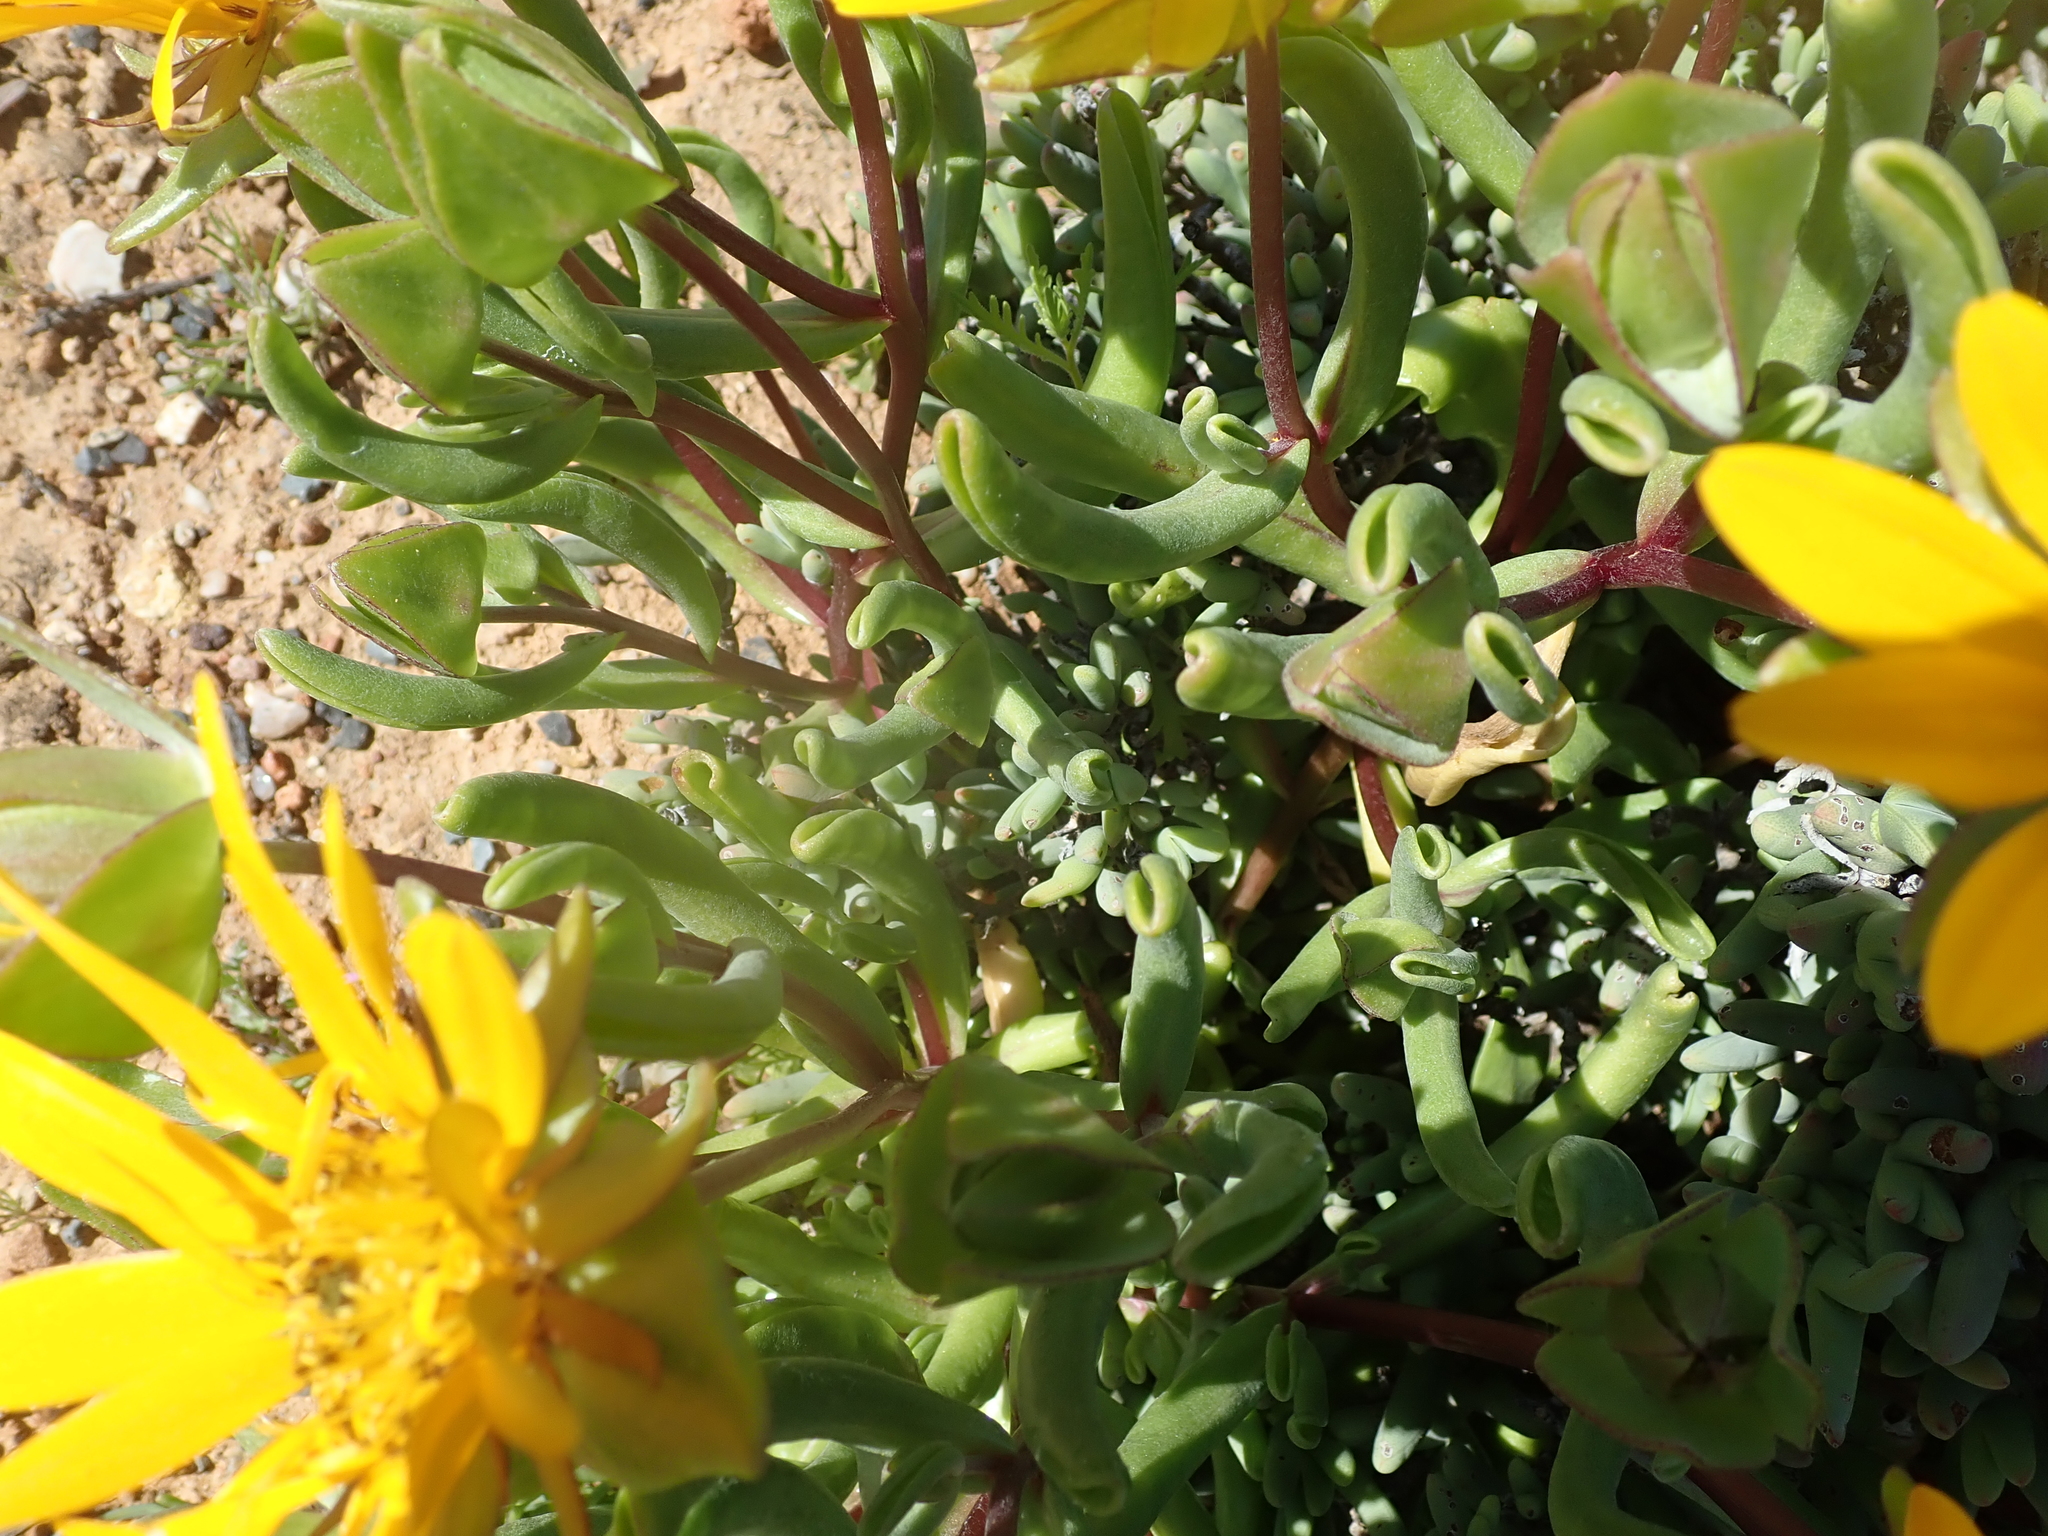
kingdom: Plantae
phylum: Tracheophyta
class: Magnoliopsida
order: Asterales
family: Asteraceae
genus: Didelta
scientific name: Didelta carnosa
